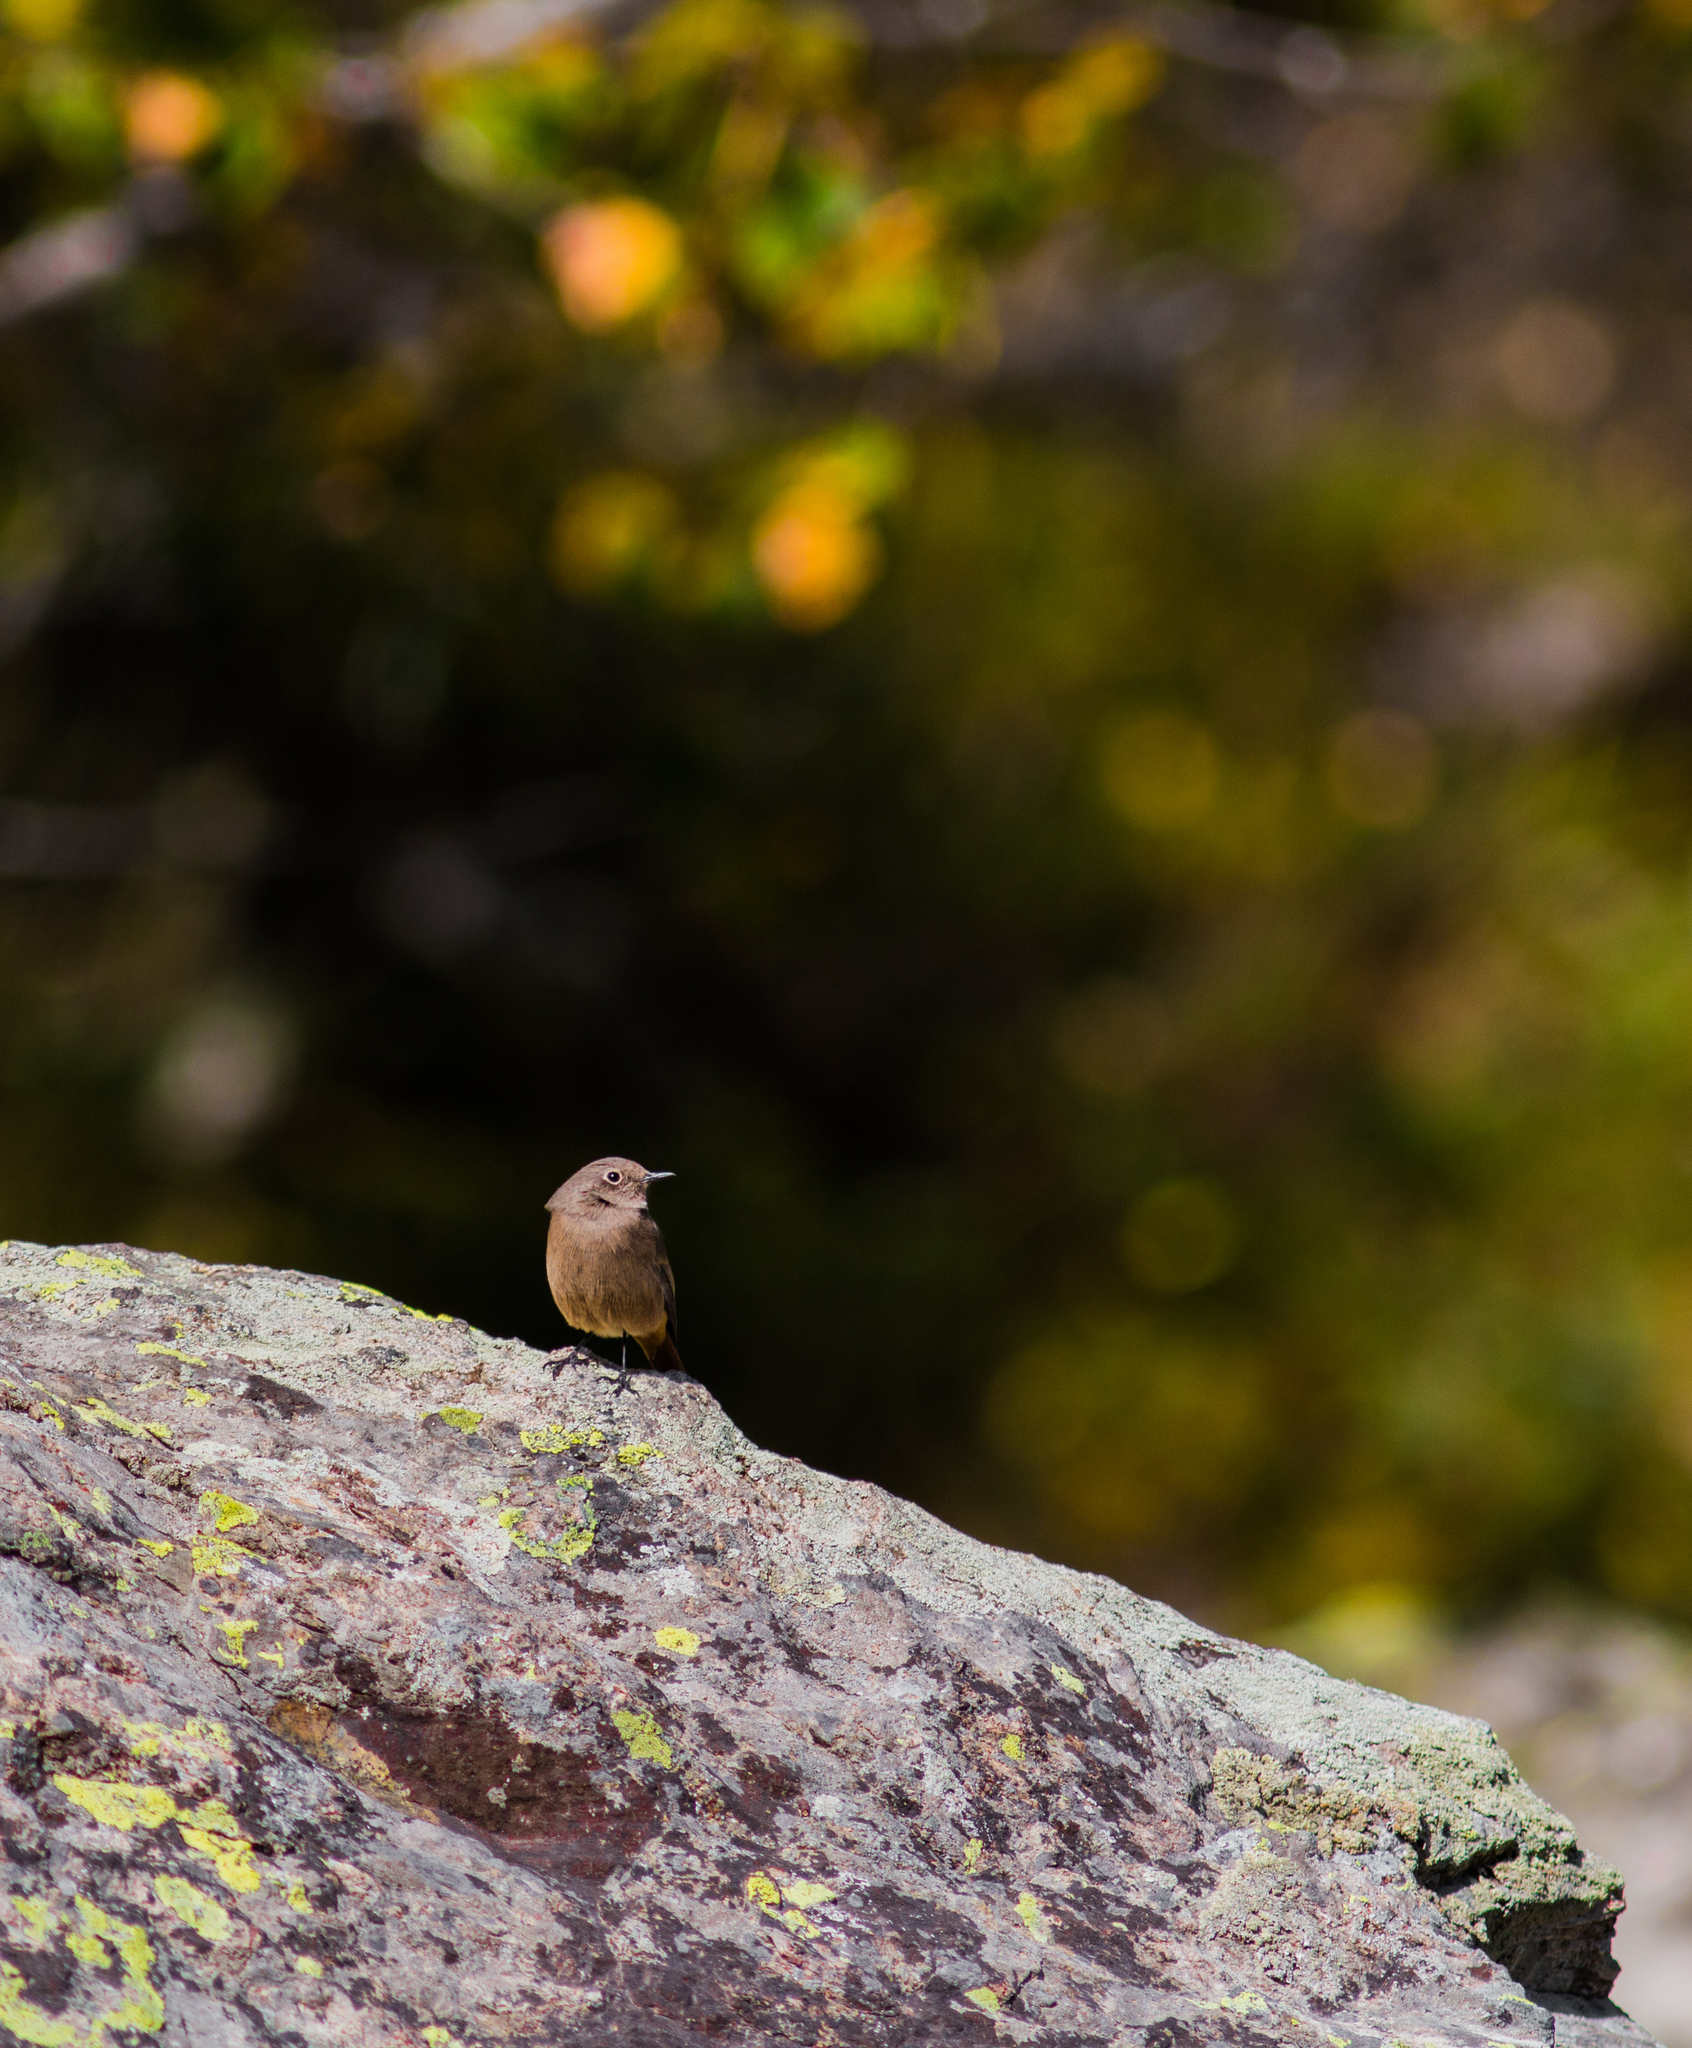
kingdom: Animalia
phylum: Chordata
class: Aves
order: Passeriformes
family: Muscicapidae
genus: Phoenicurus
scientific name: Phoenicurus ochruros
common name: Black redstart
